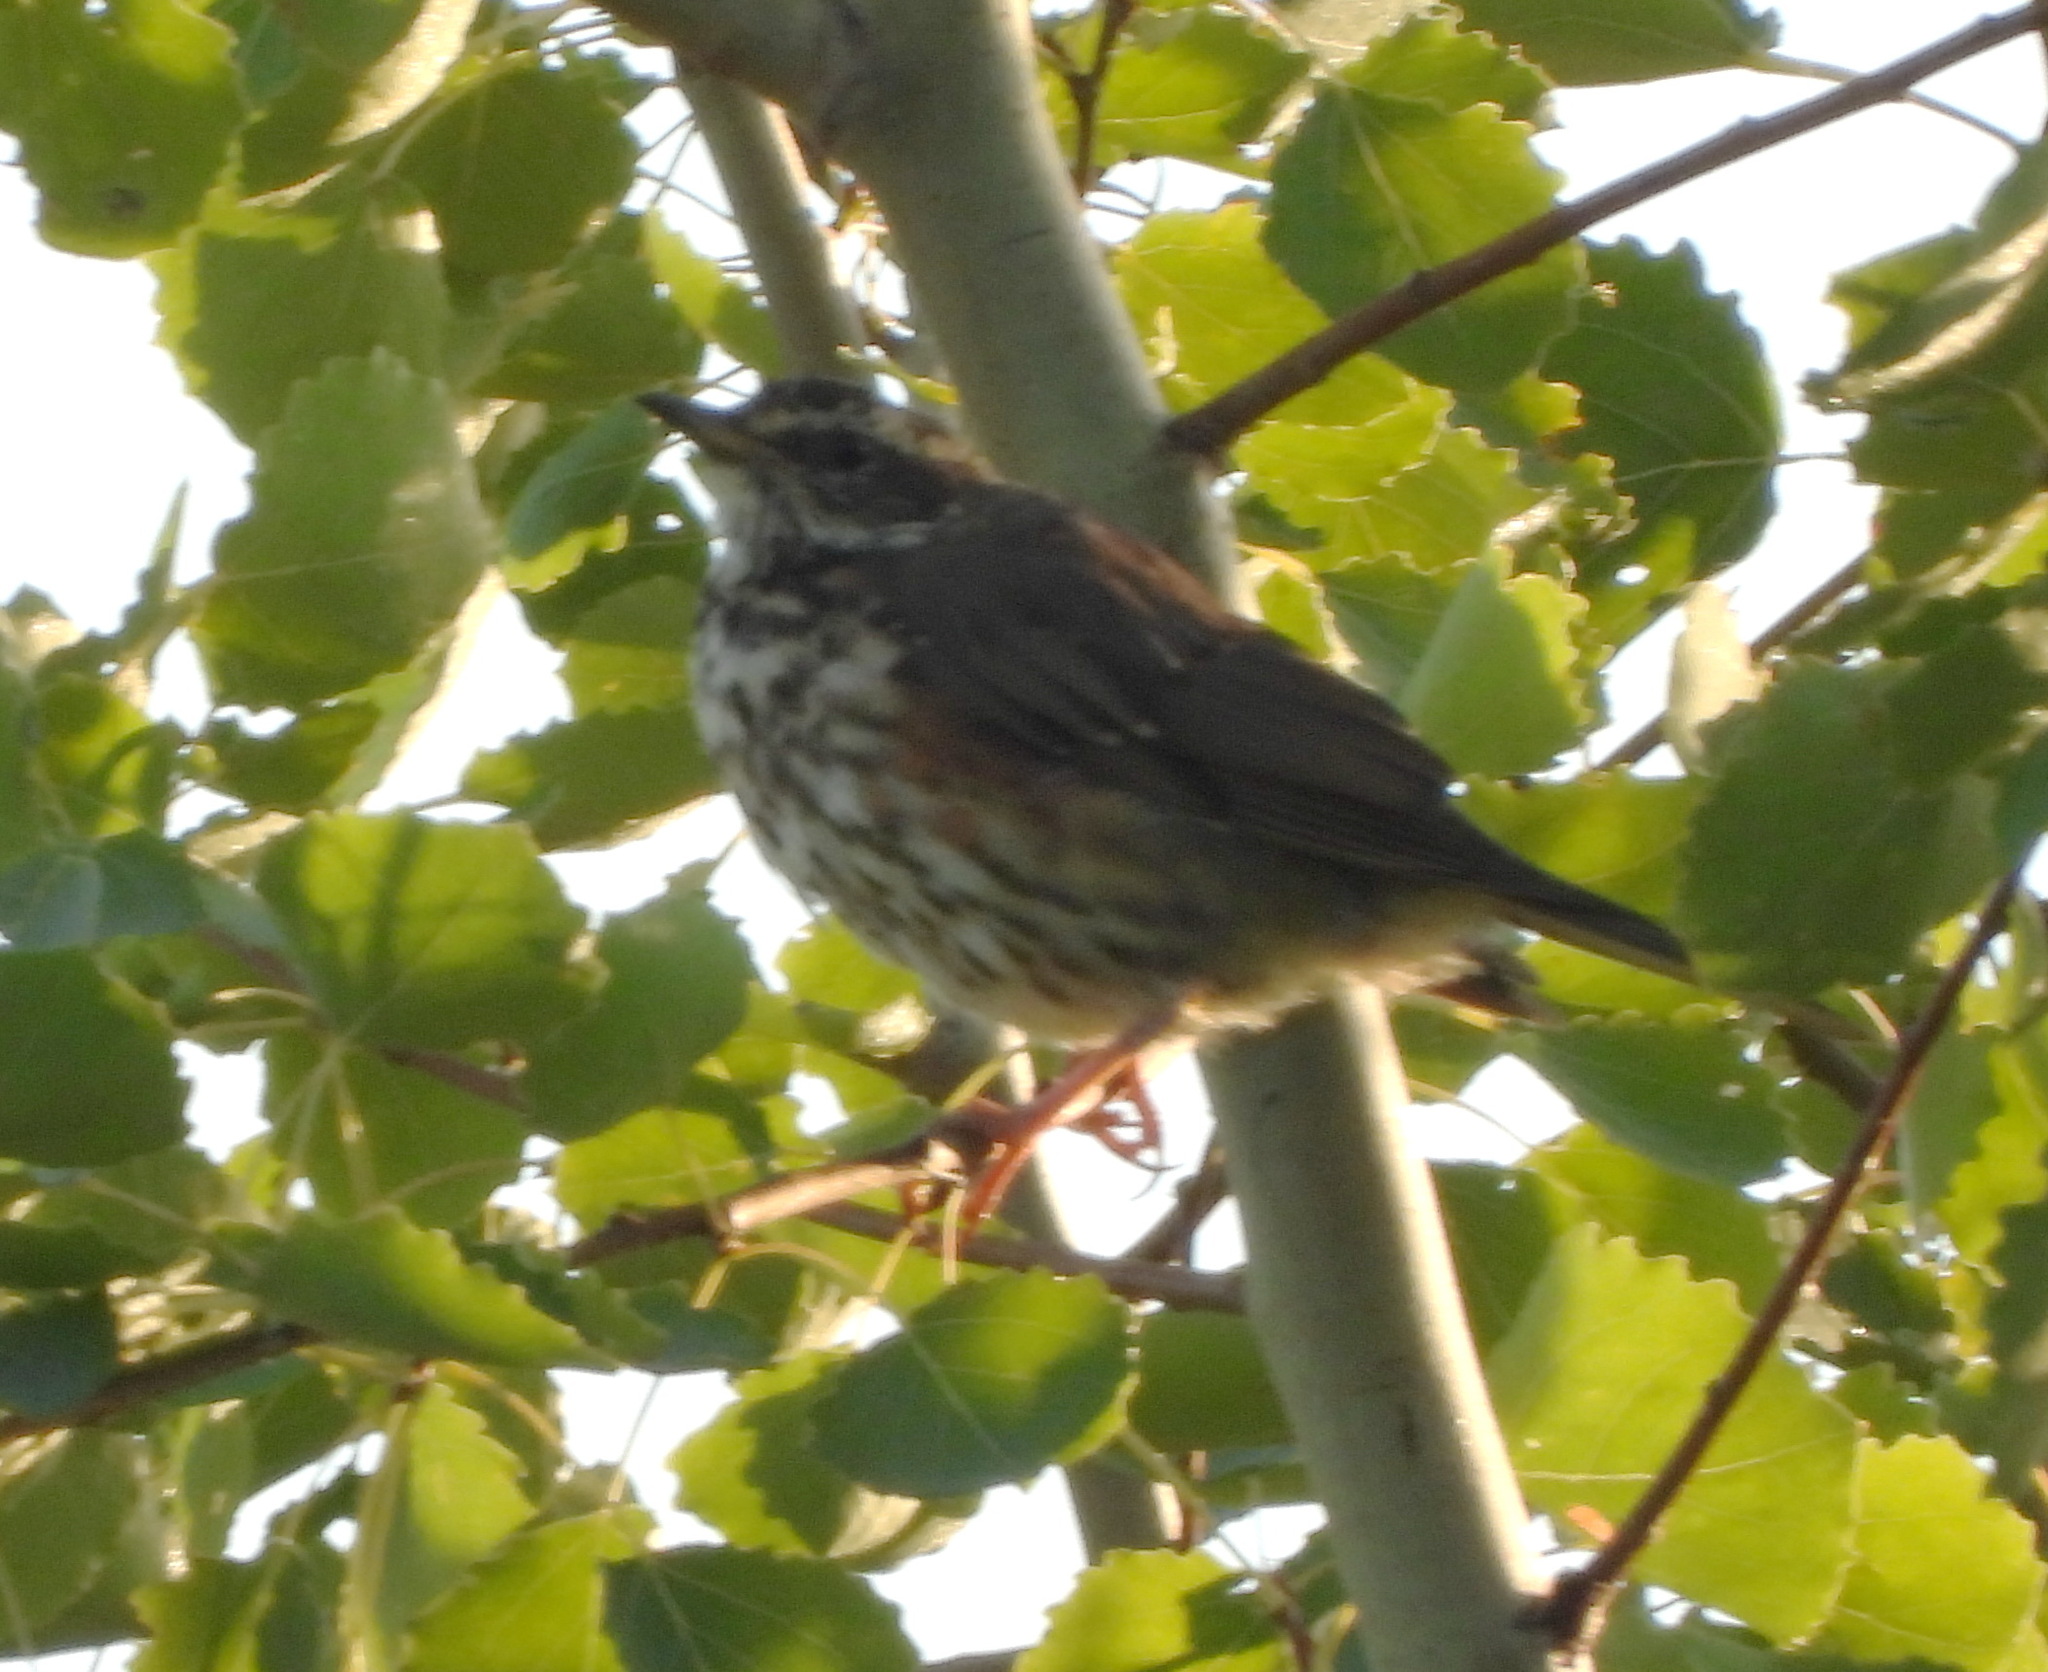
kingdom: Animalia
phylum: Chordata
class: Aves
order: Passeriformes
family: Turdidae
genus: Turdus
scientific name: Turdus iliacus
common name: Redwing
